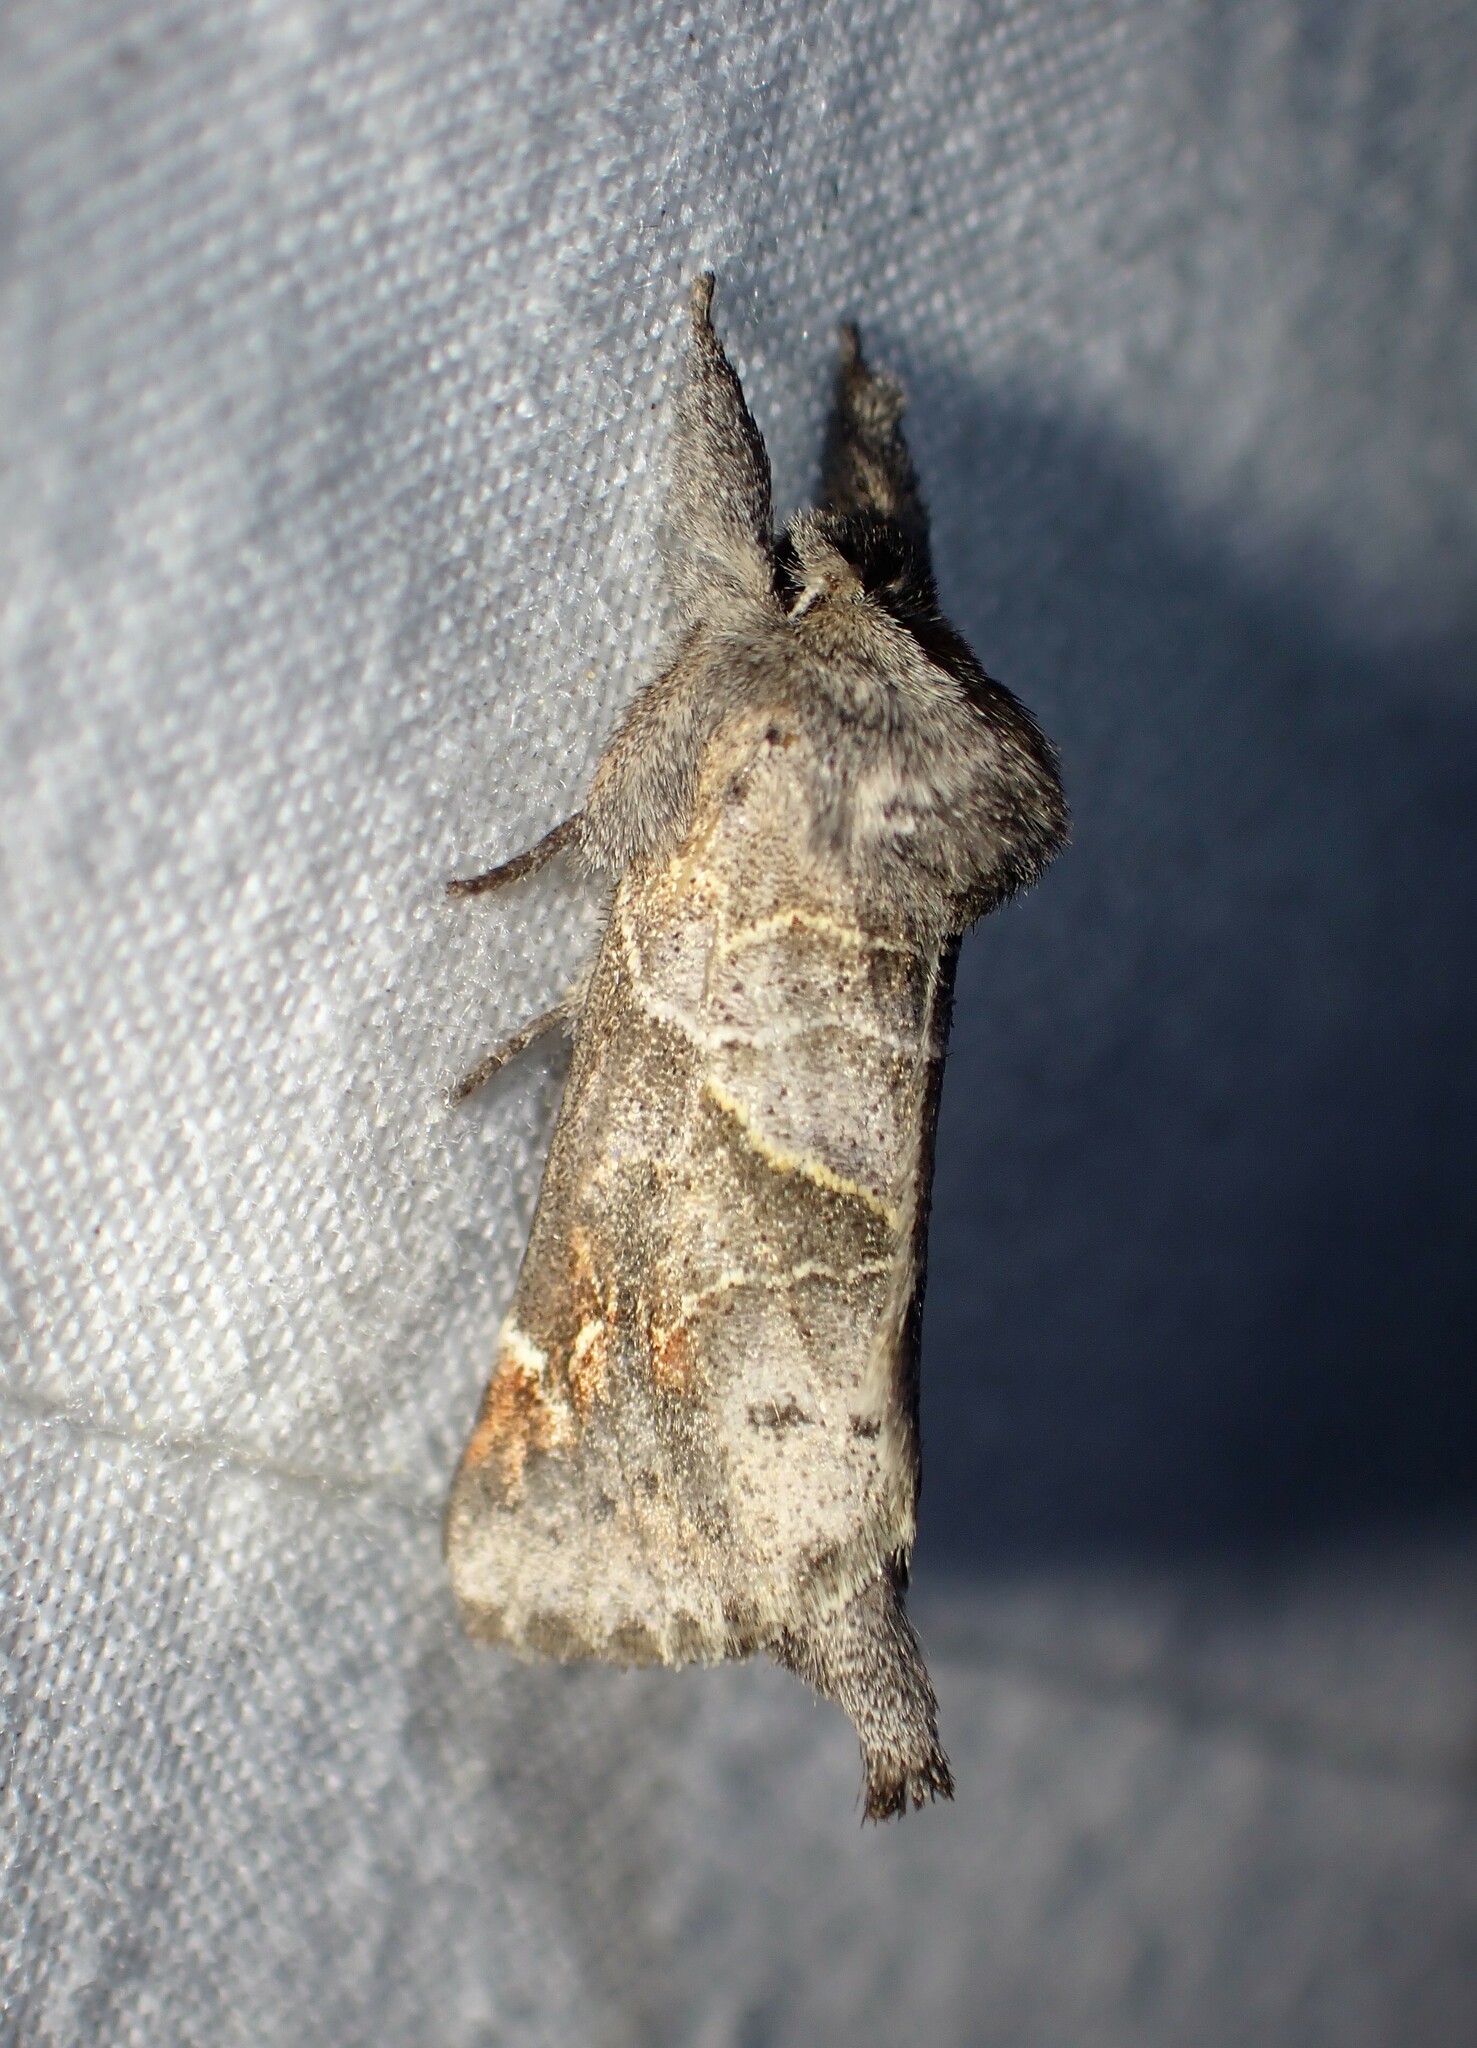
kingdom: Animalia
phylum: Arthropoda
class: Insecta
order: Lepidoptera
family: Notodontidae
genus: Clostera
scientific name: Clostera apicalis
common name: Apical prominent
